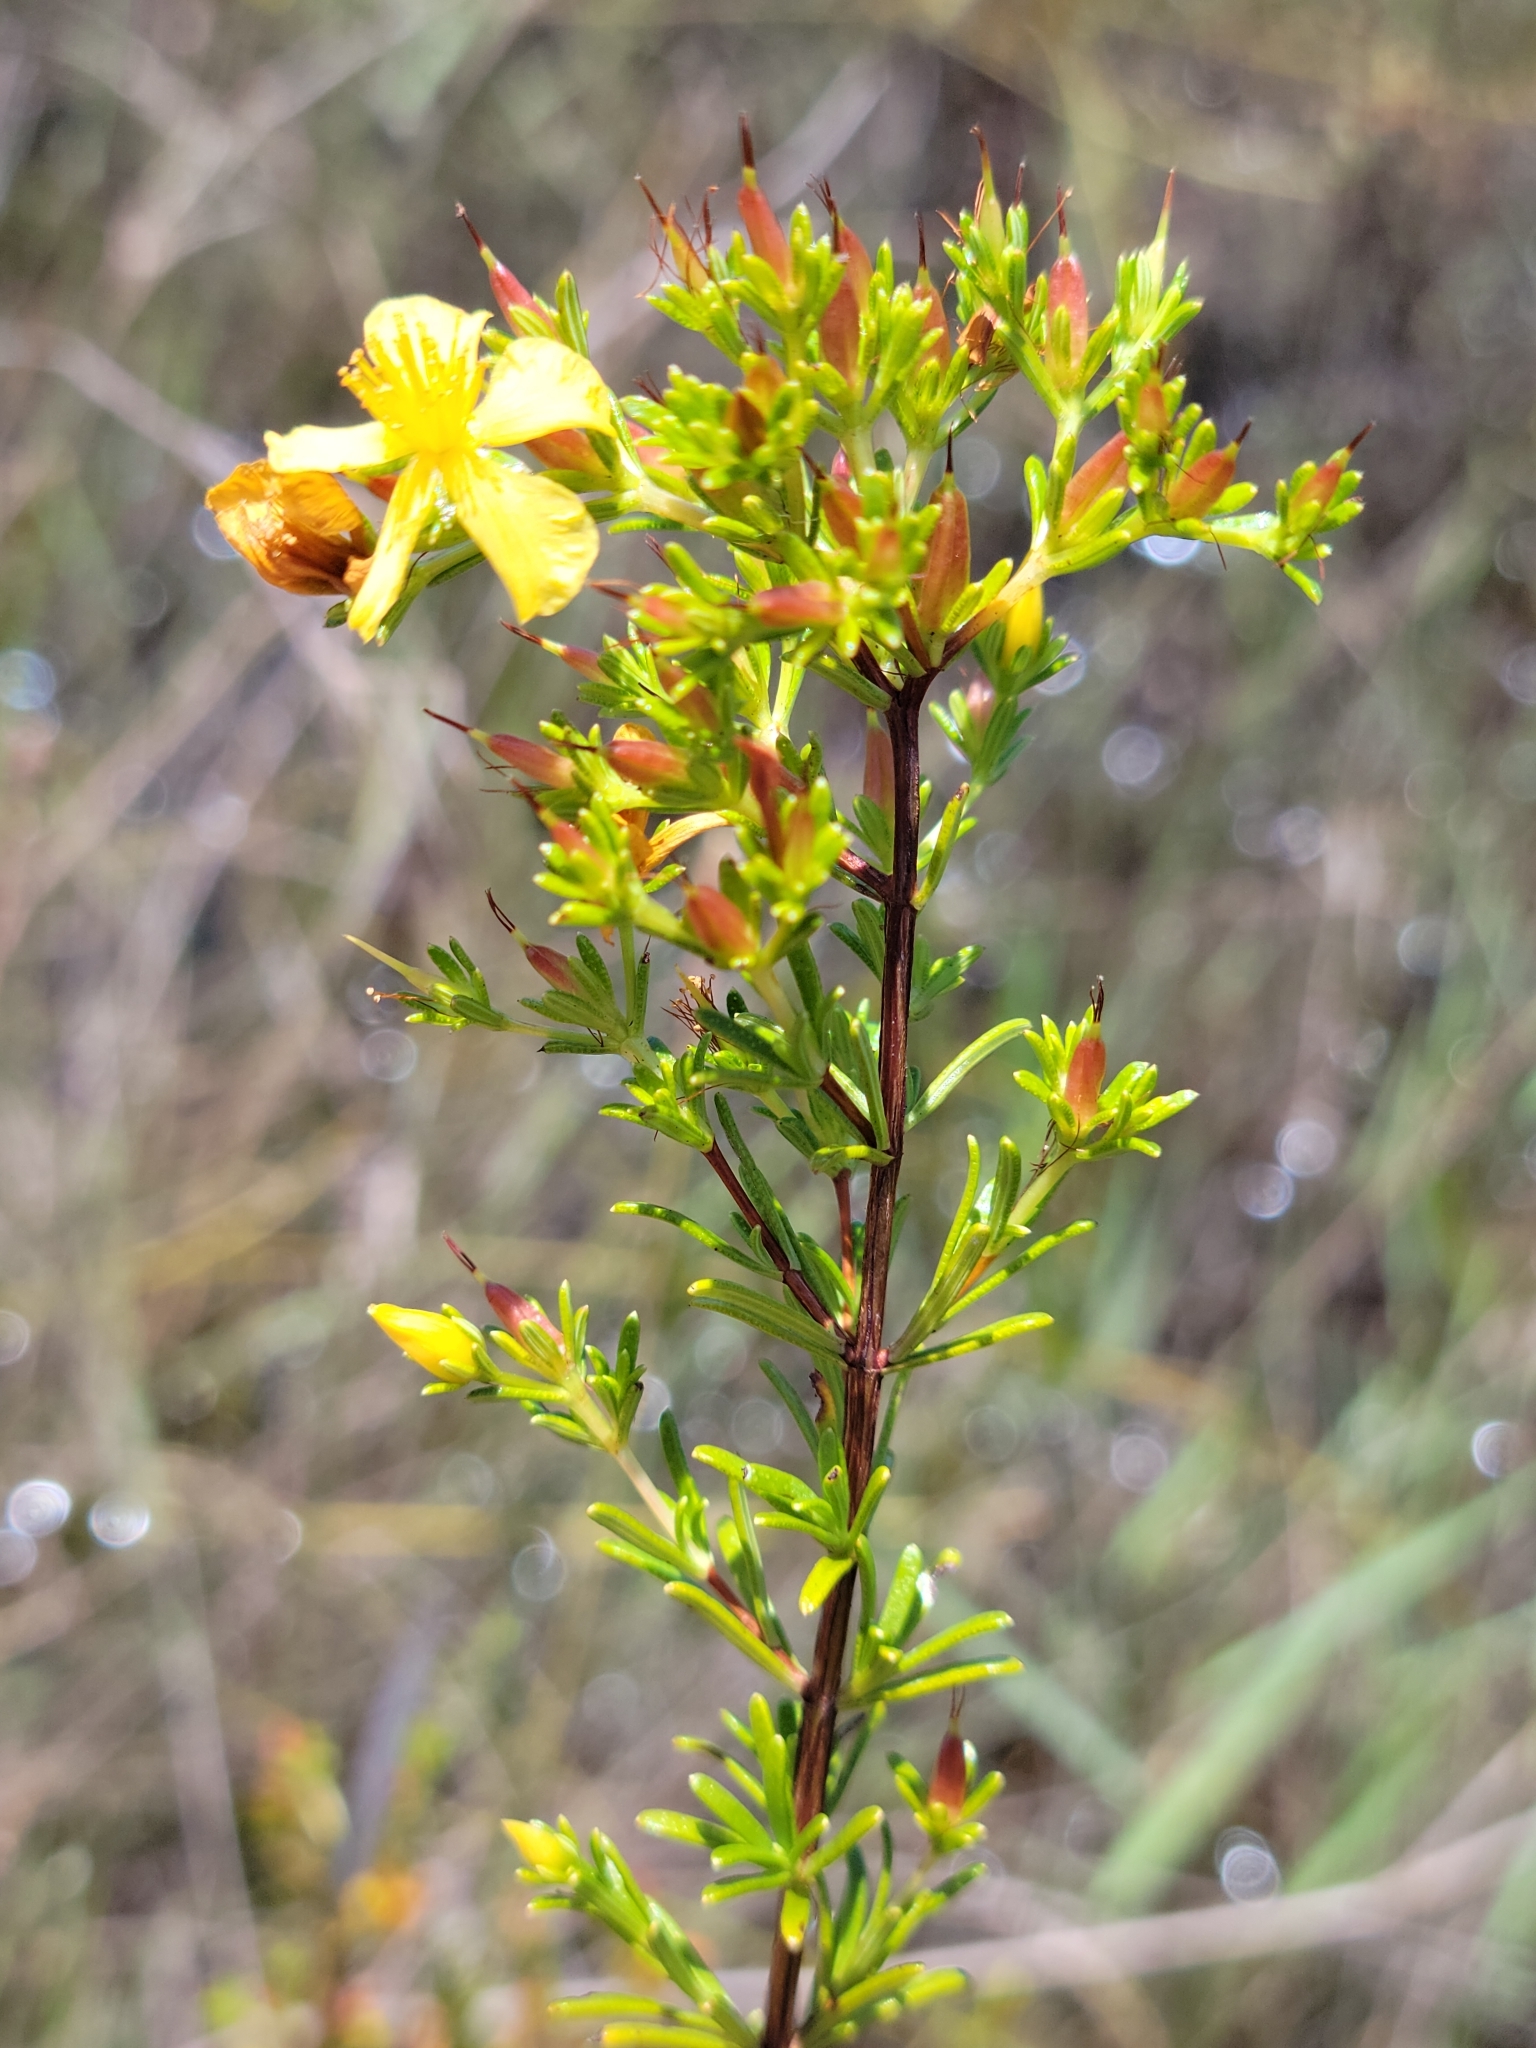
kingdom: Plantae
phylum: Tracheophyta
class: Magnoliopsida
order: Malpighiales
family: Hypericaceae
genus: Hypericum
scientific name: Hypericum limosum
